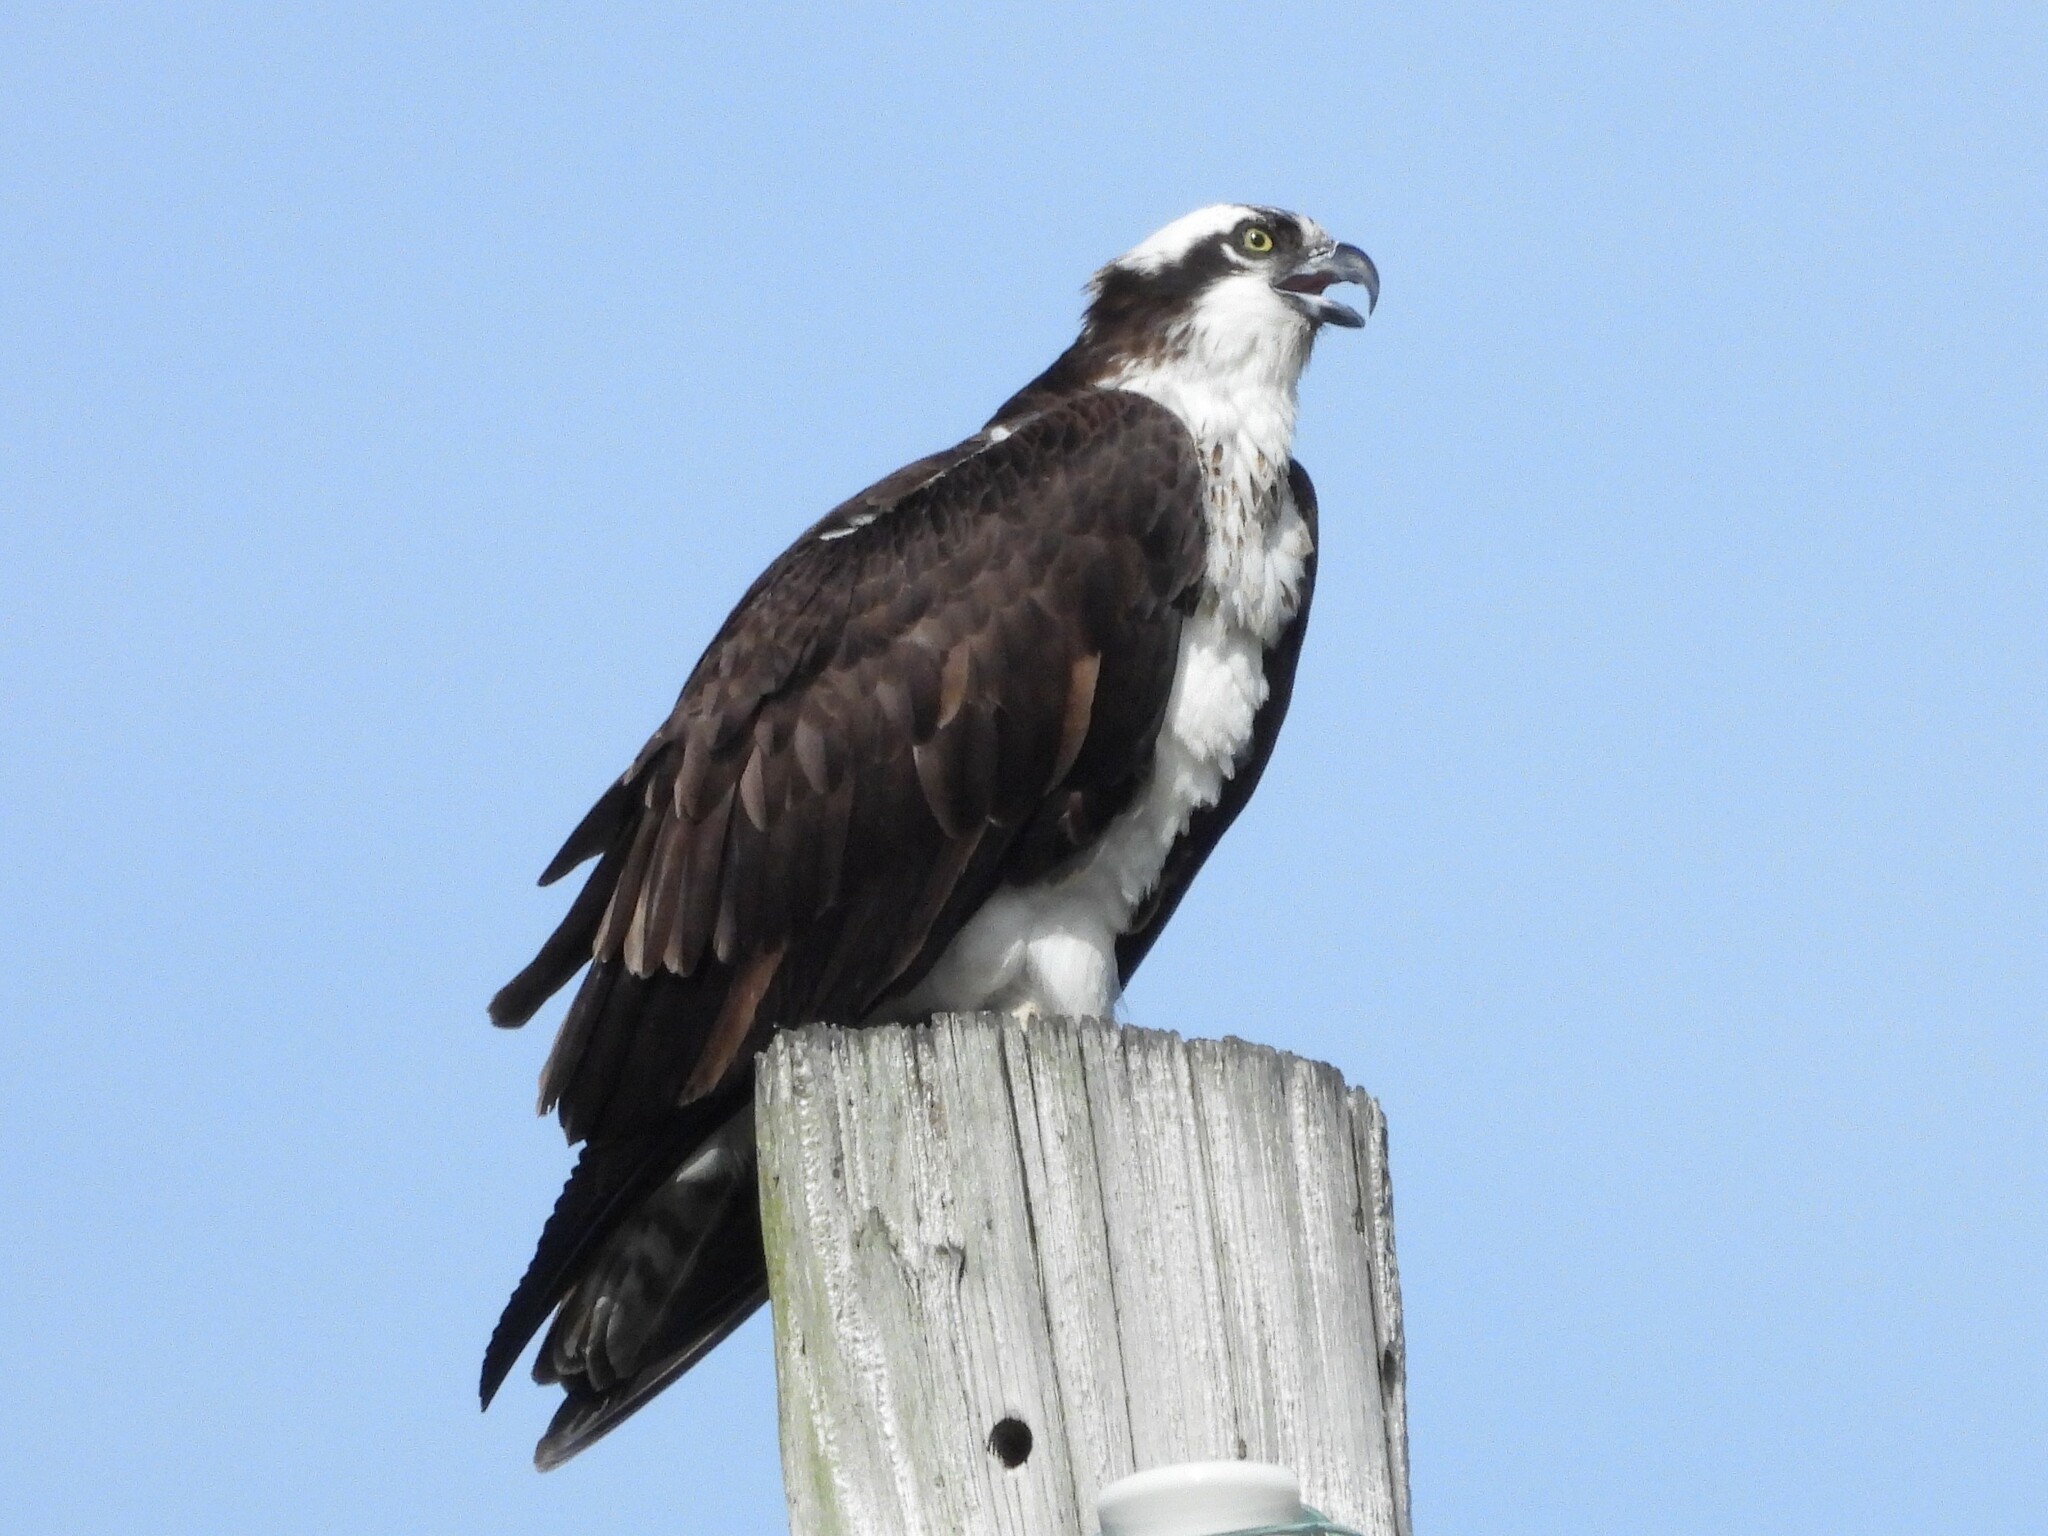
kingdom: Animalia
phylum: Chordata
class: Aves
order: Accipitriformes
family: Pandionidae
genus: Pandion
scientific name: Pandion haliaetus
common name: Osprey
